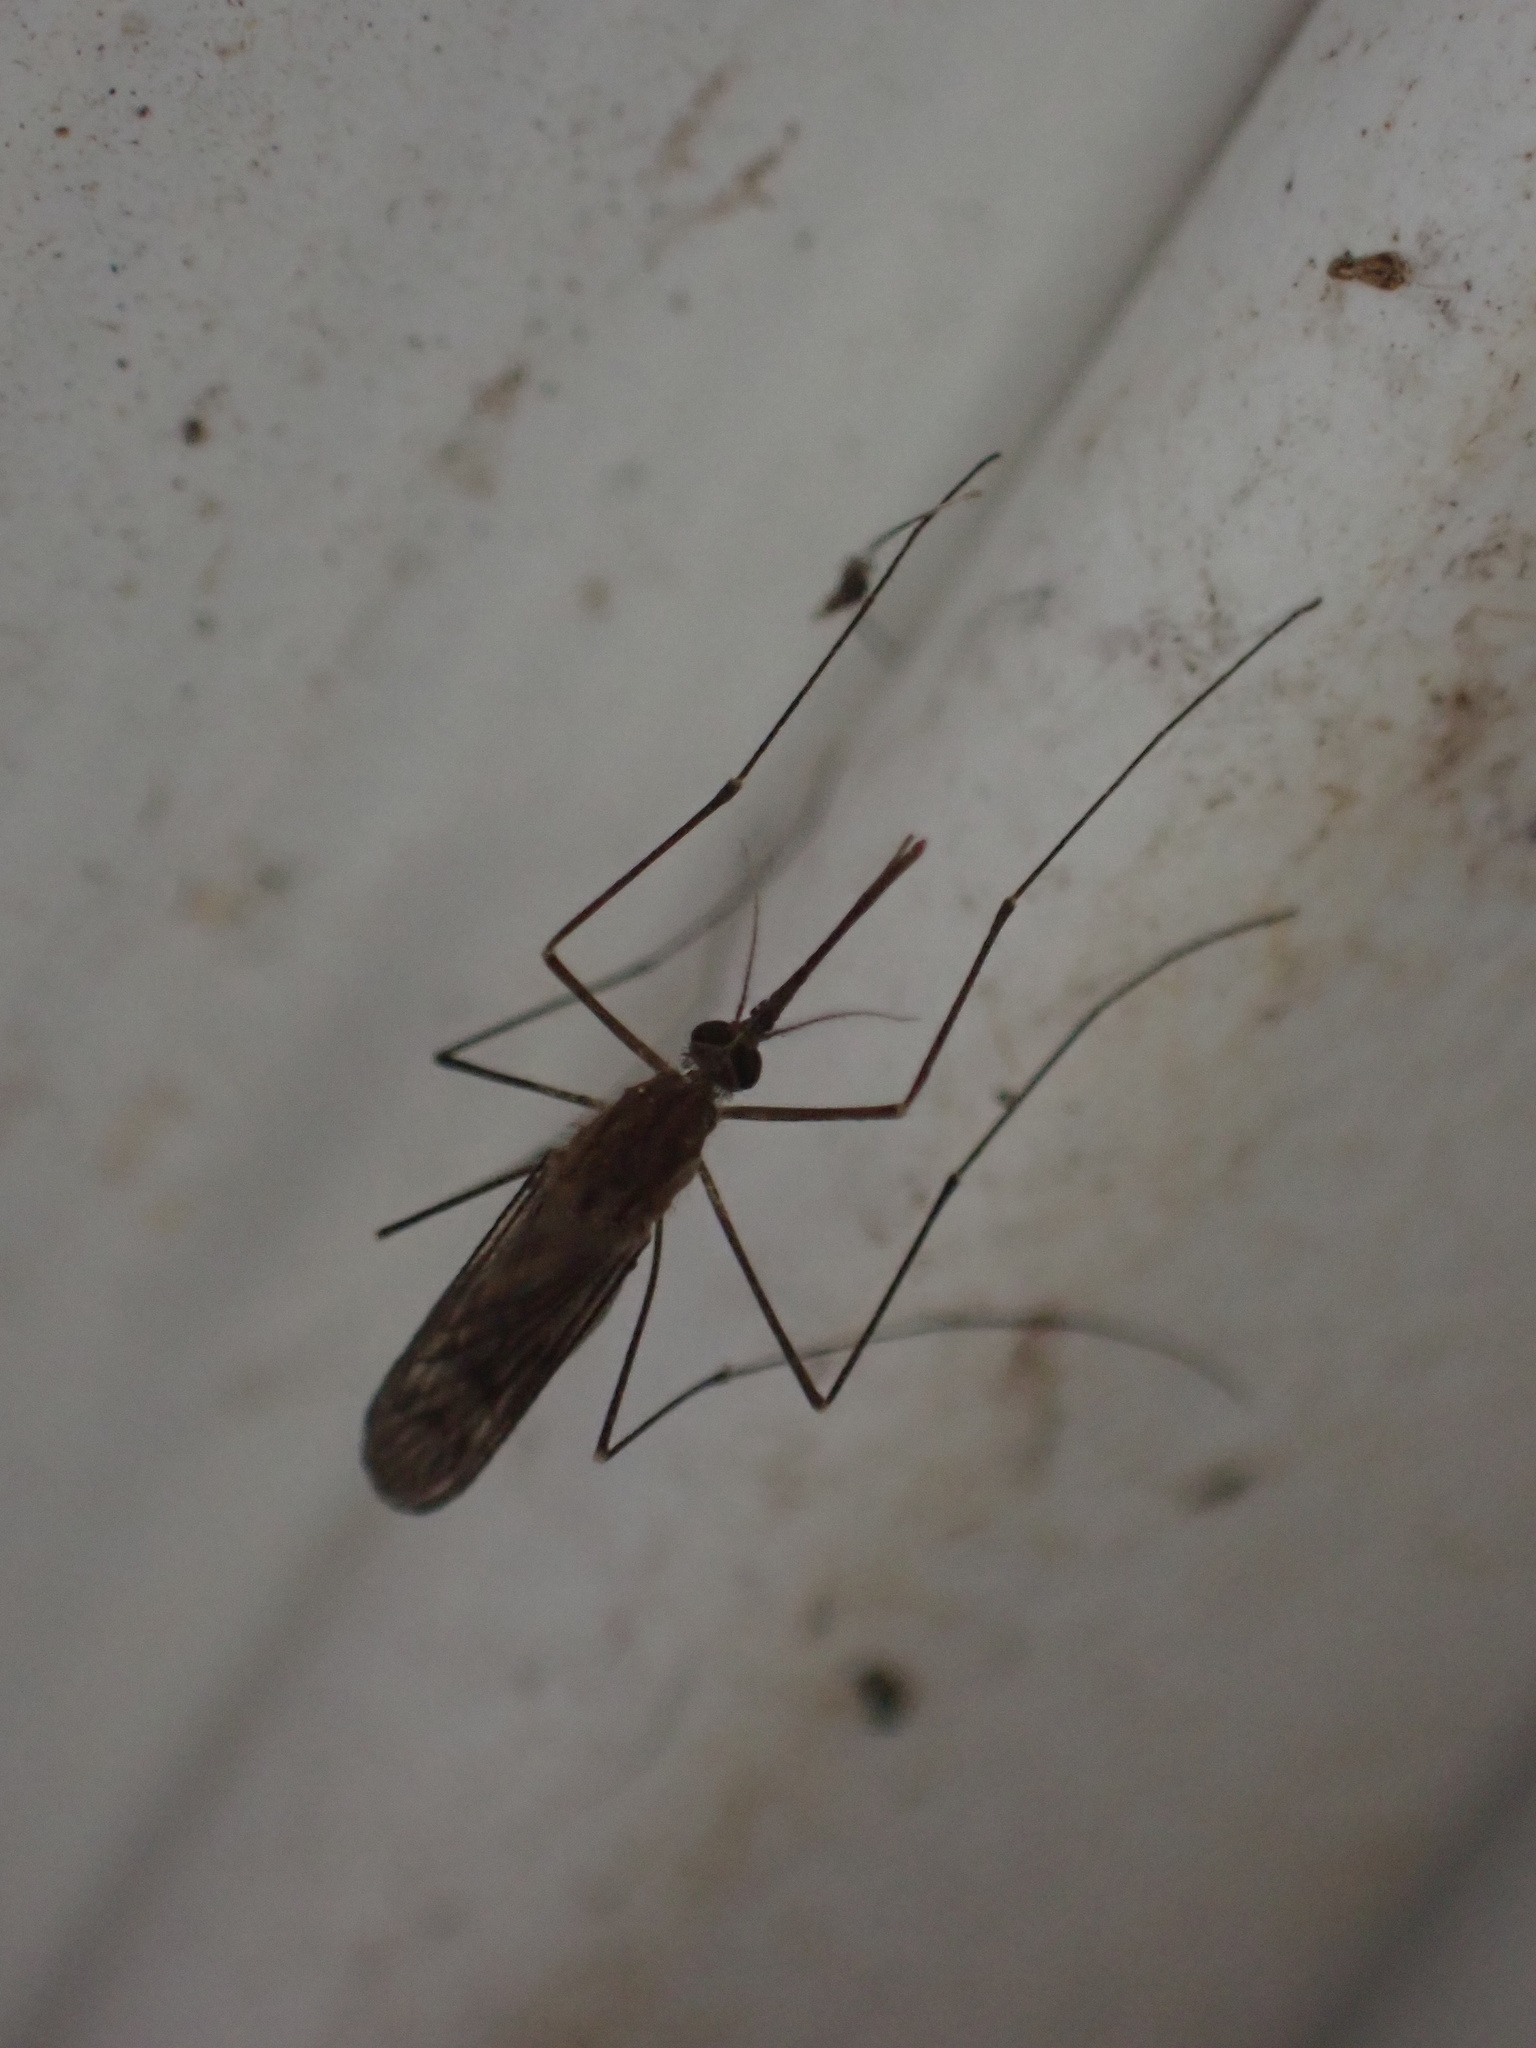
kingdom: Animalia
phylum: Arthropoda
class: Insecta
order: Diptera
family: Culicidae
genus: Anopheles
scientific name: Anopheles
